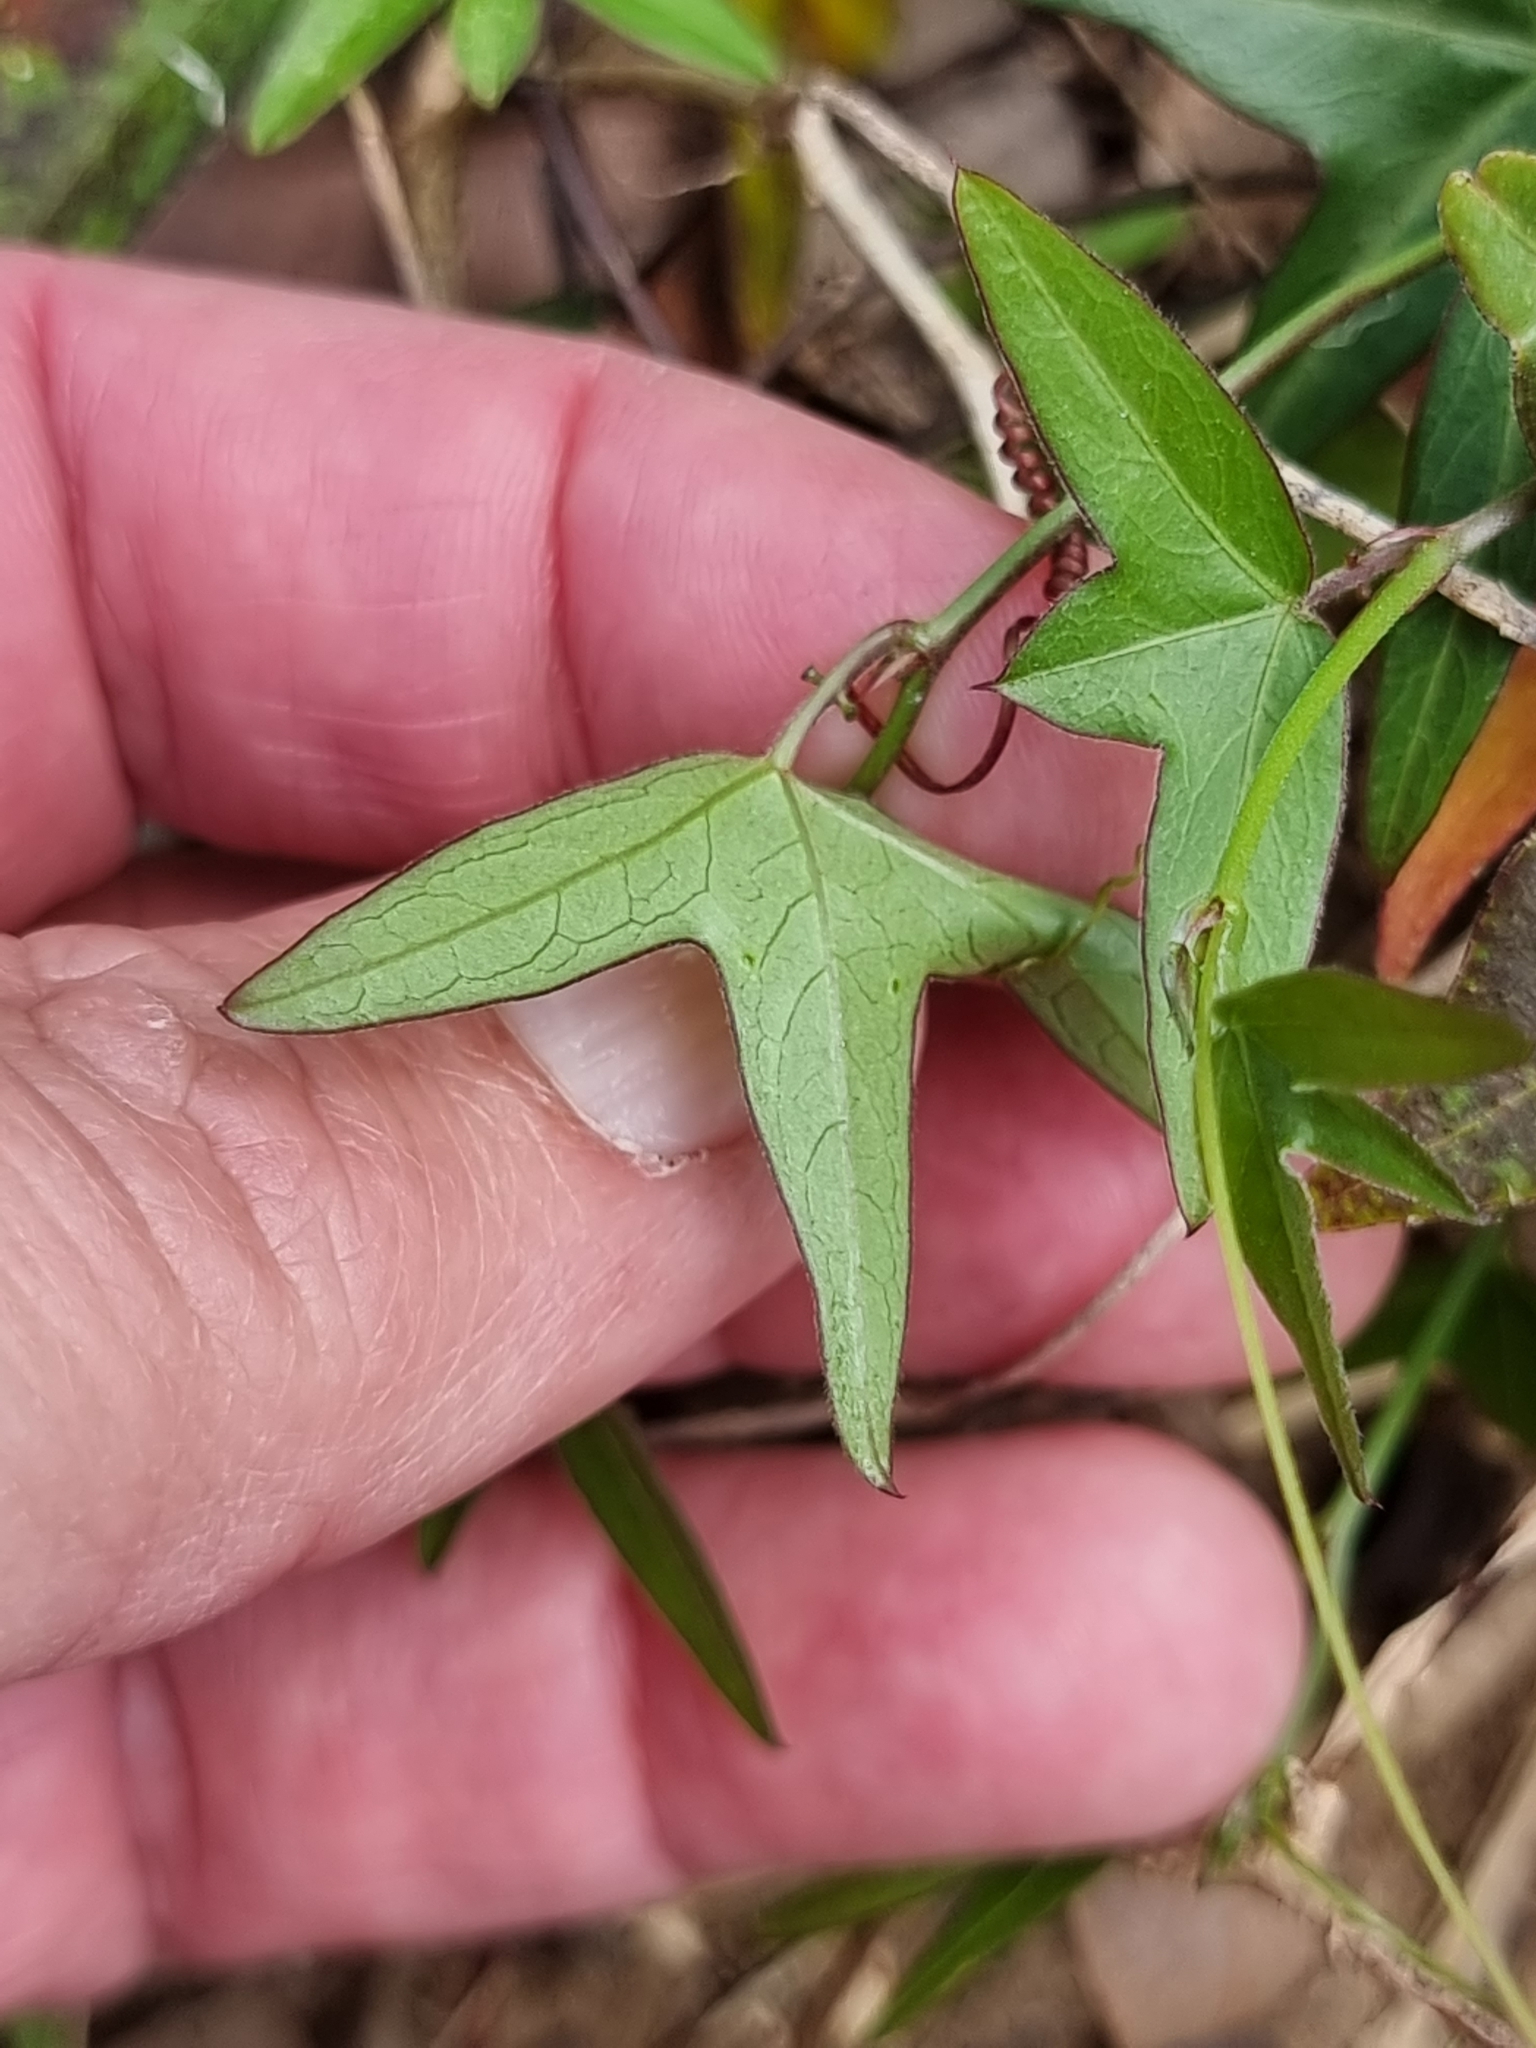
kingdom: Plantae
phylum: Tracheophyta
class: Magnoliopsida
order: Malpighiales
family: Passifloraceae
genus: Passiflora
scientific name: Passiflora suberosa
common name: Wild passionfruit
